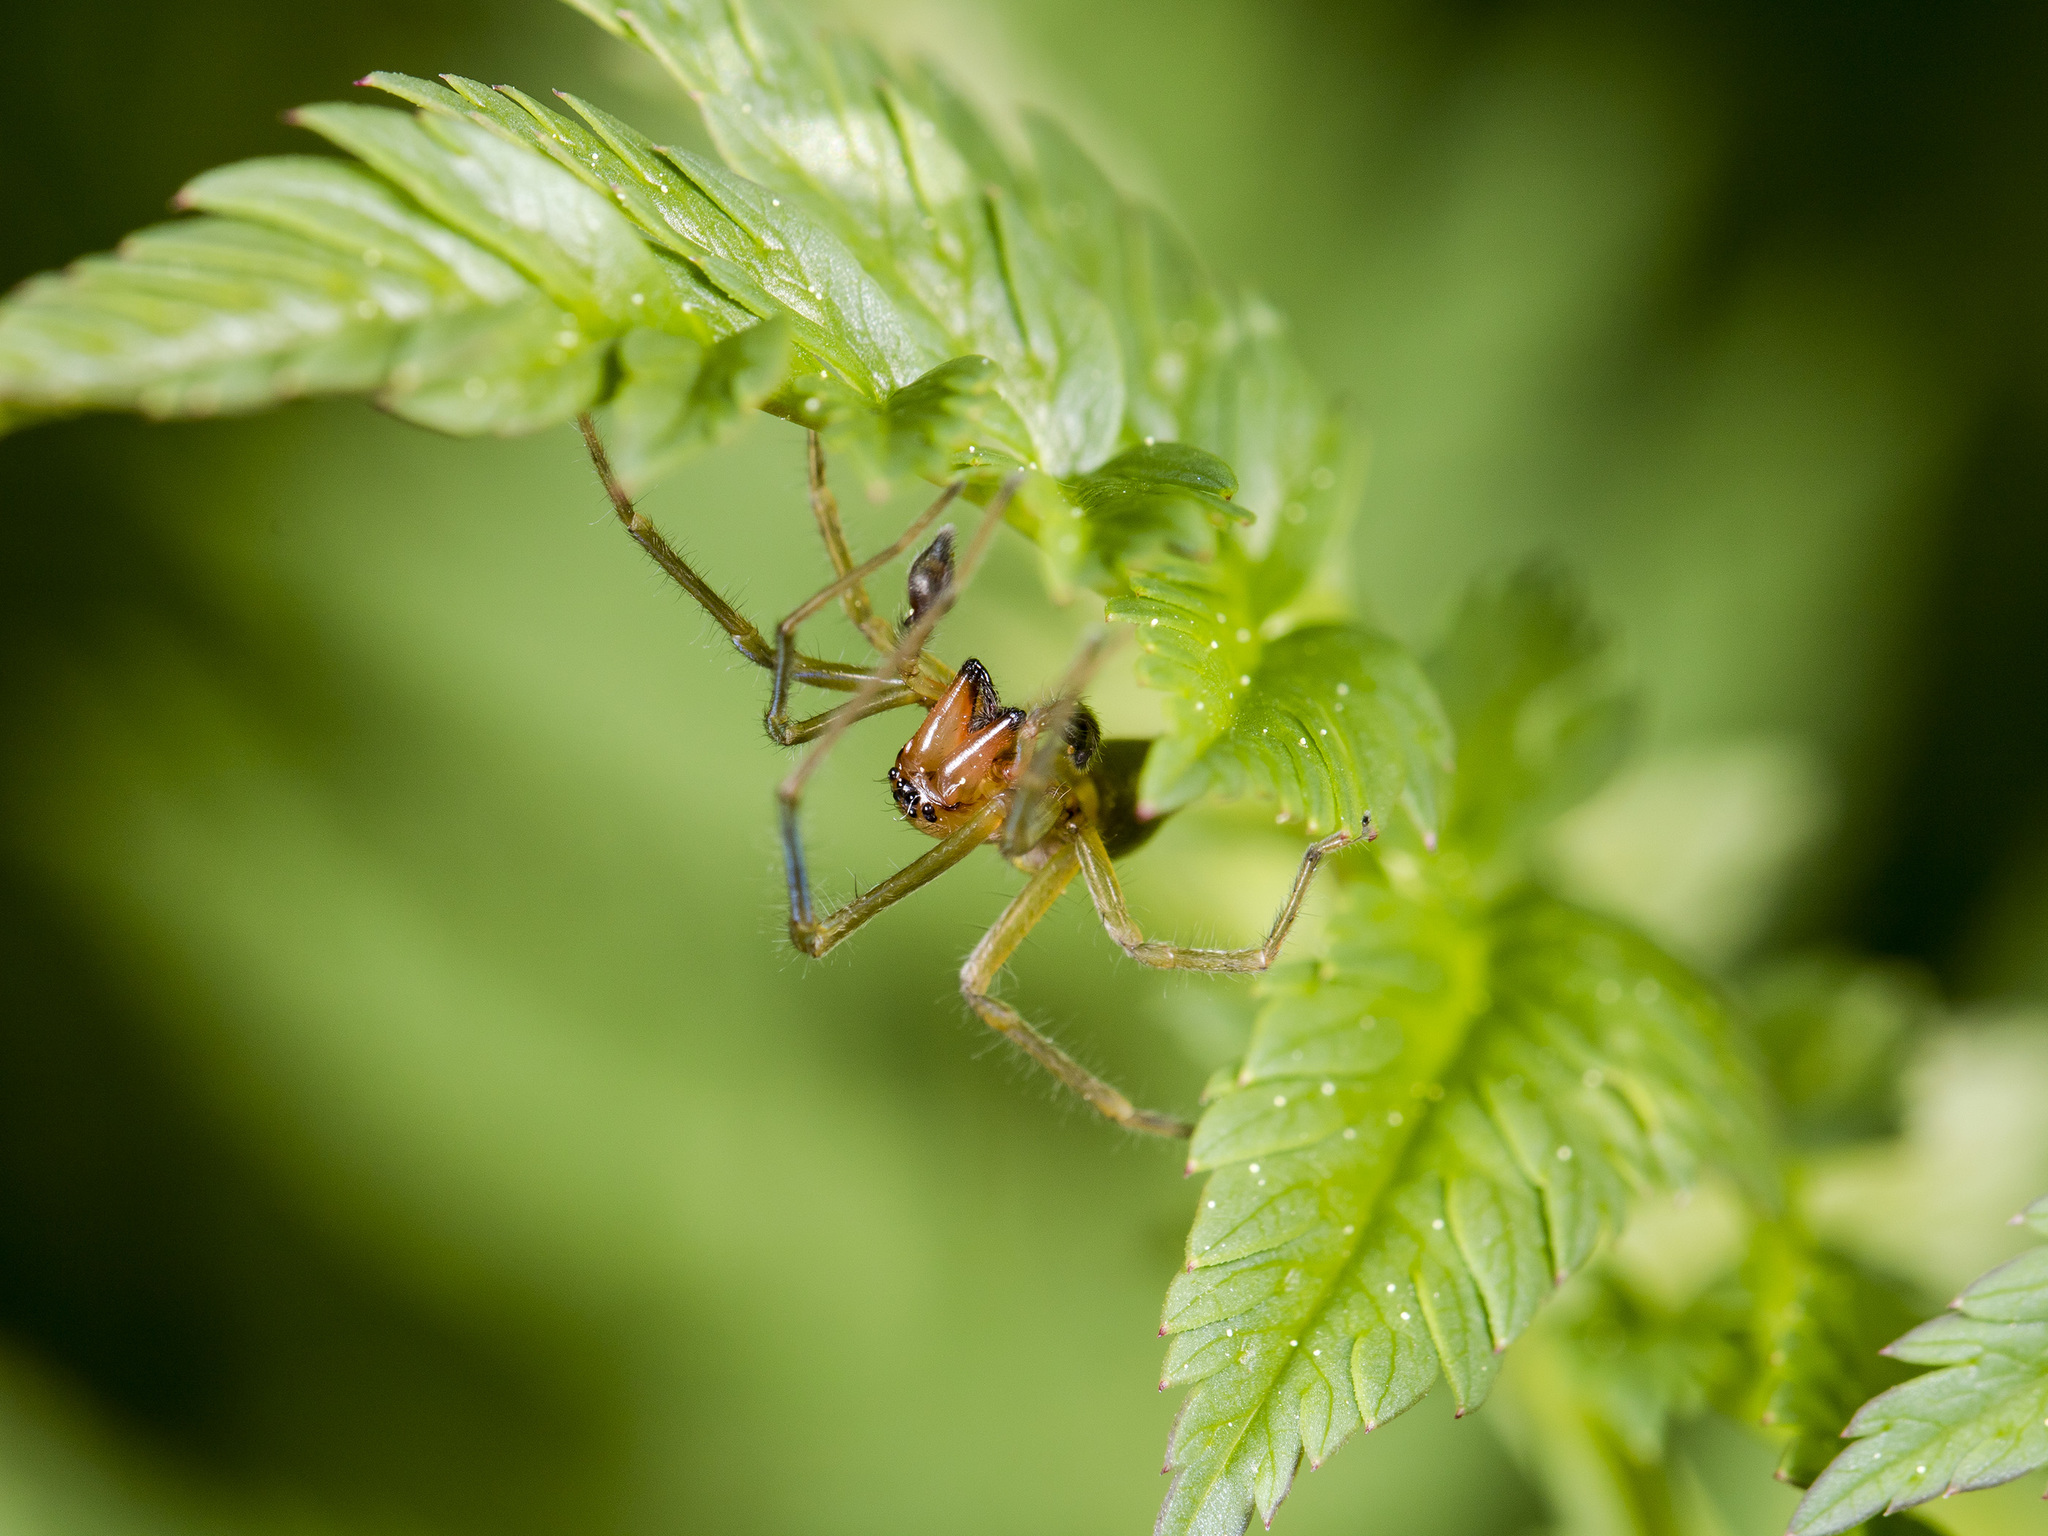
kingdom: Animalia
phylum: Arthropoda
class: Arachnida
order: Araneae
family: Cheiracanthiidae
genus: Cheiracanthium
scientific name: Cheiracanthium erraticum
